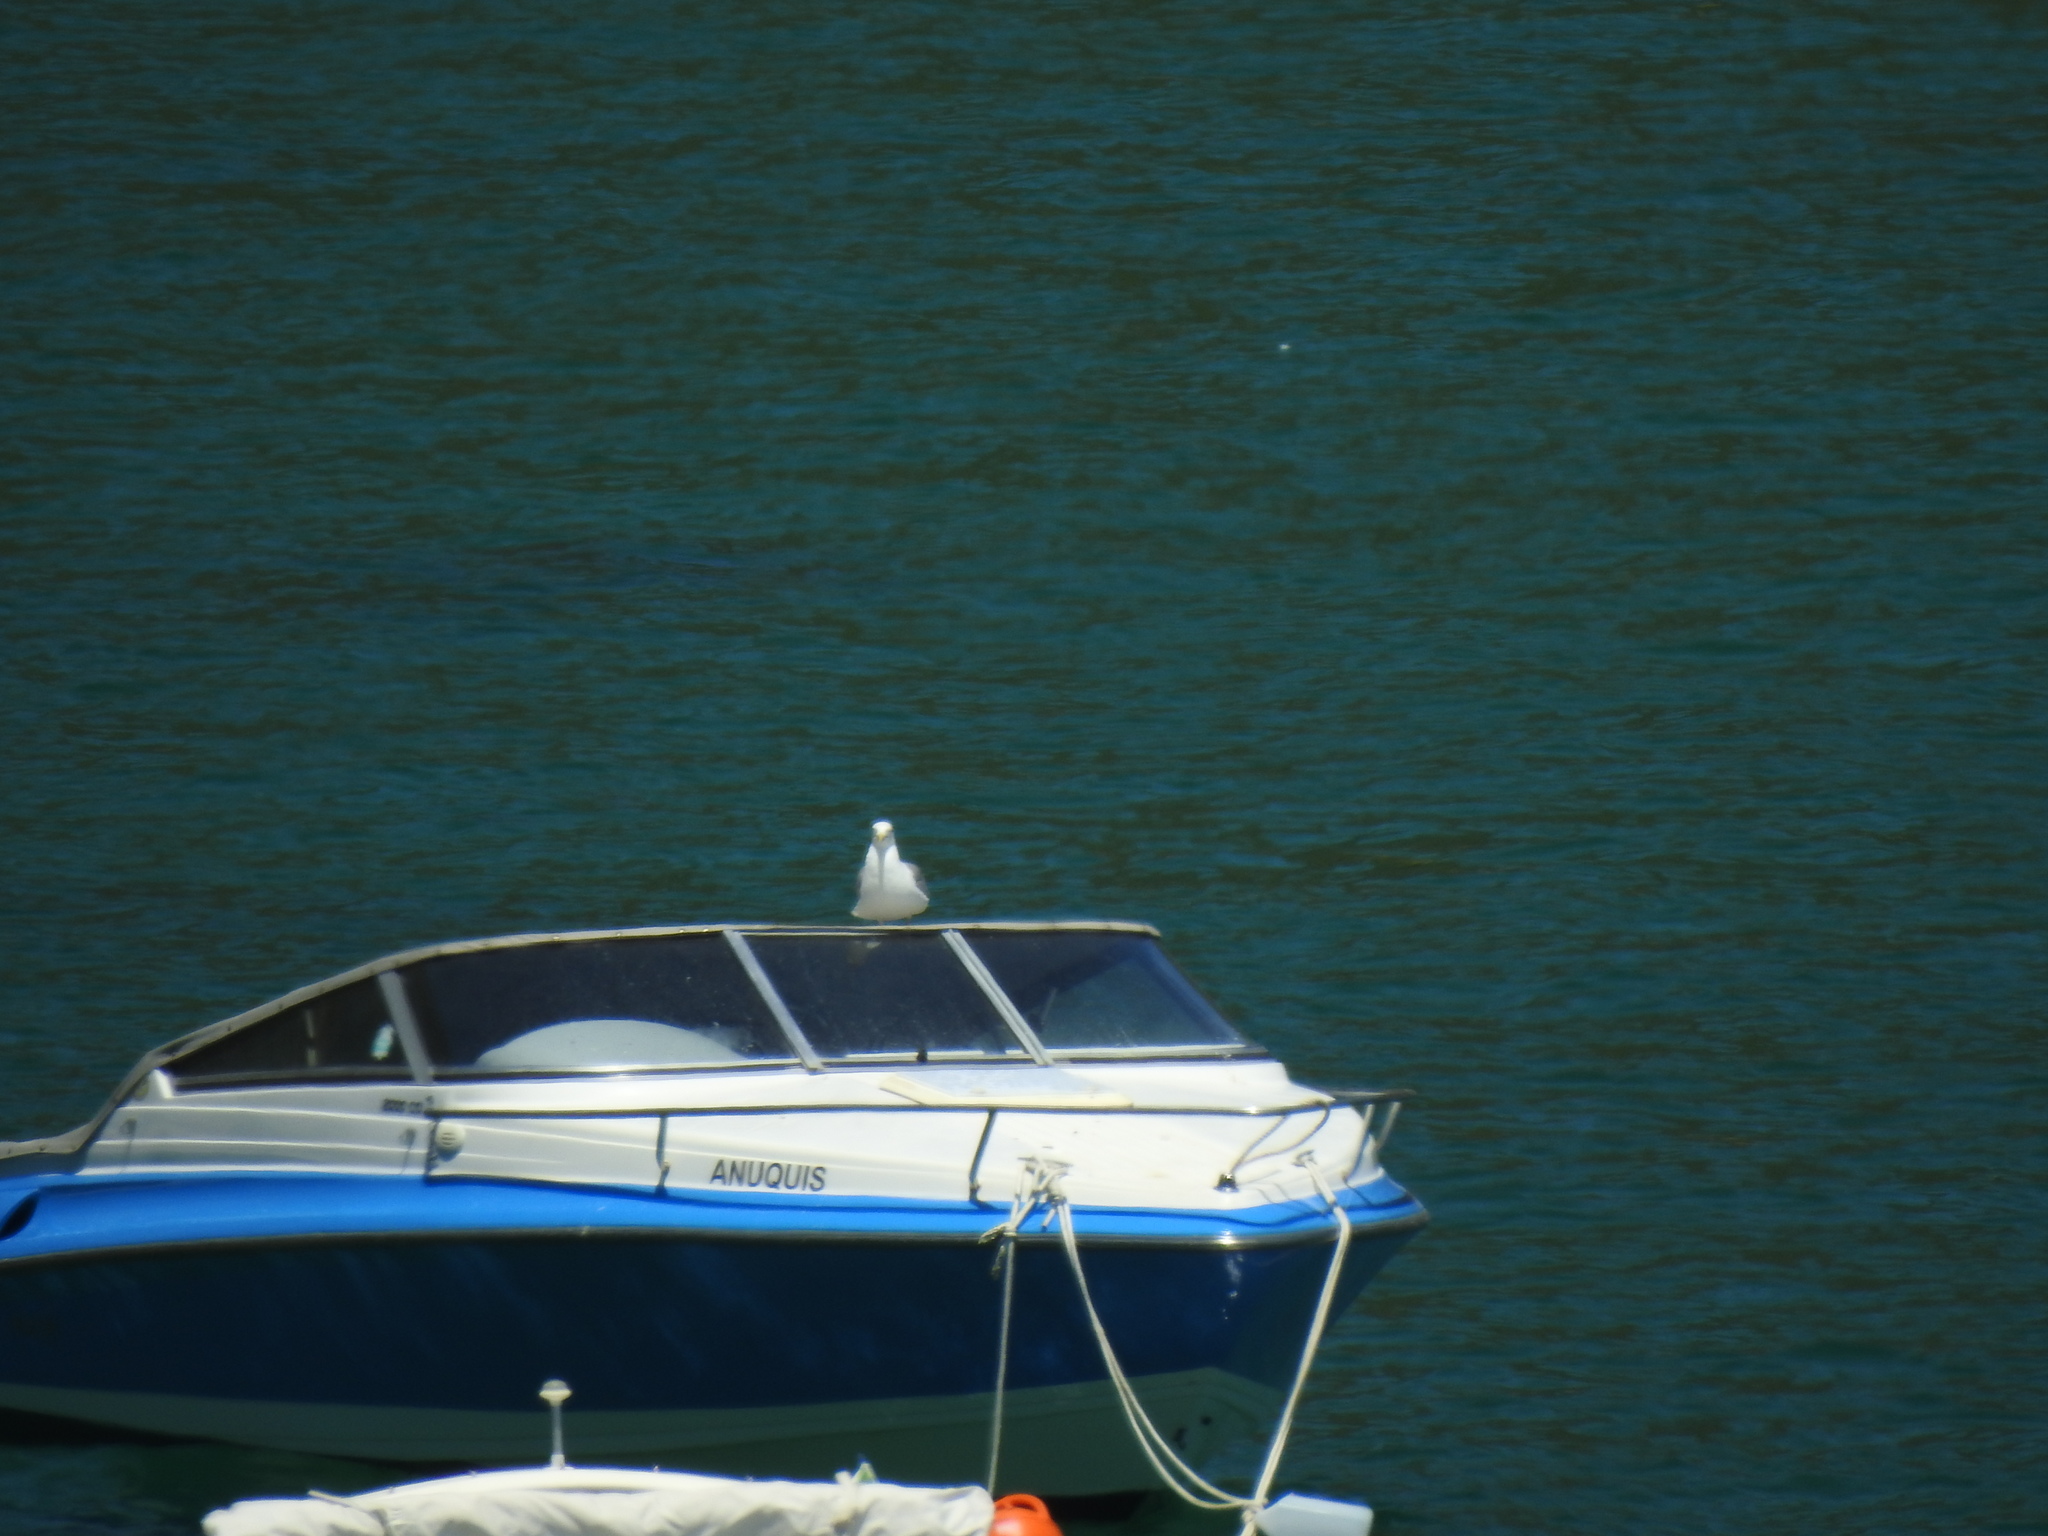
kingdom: Animalia
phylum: Chordata
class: Aves
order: Charadriiformes
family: Laridae
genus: Larus
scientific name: Larus michahellis
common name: Yellow-legged gull
